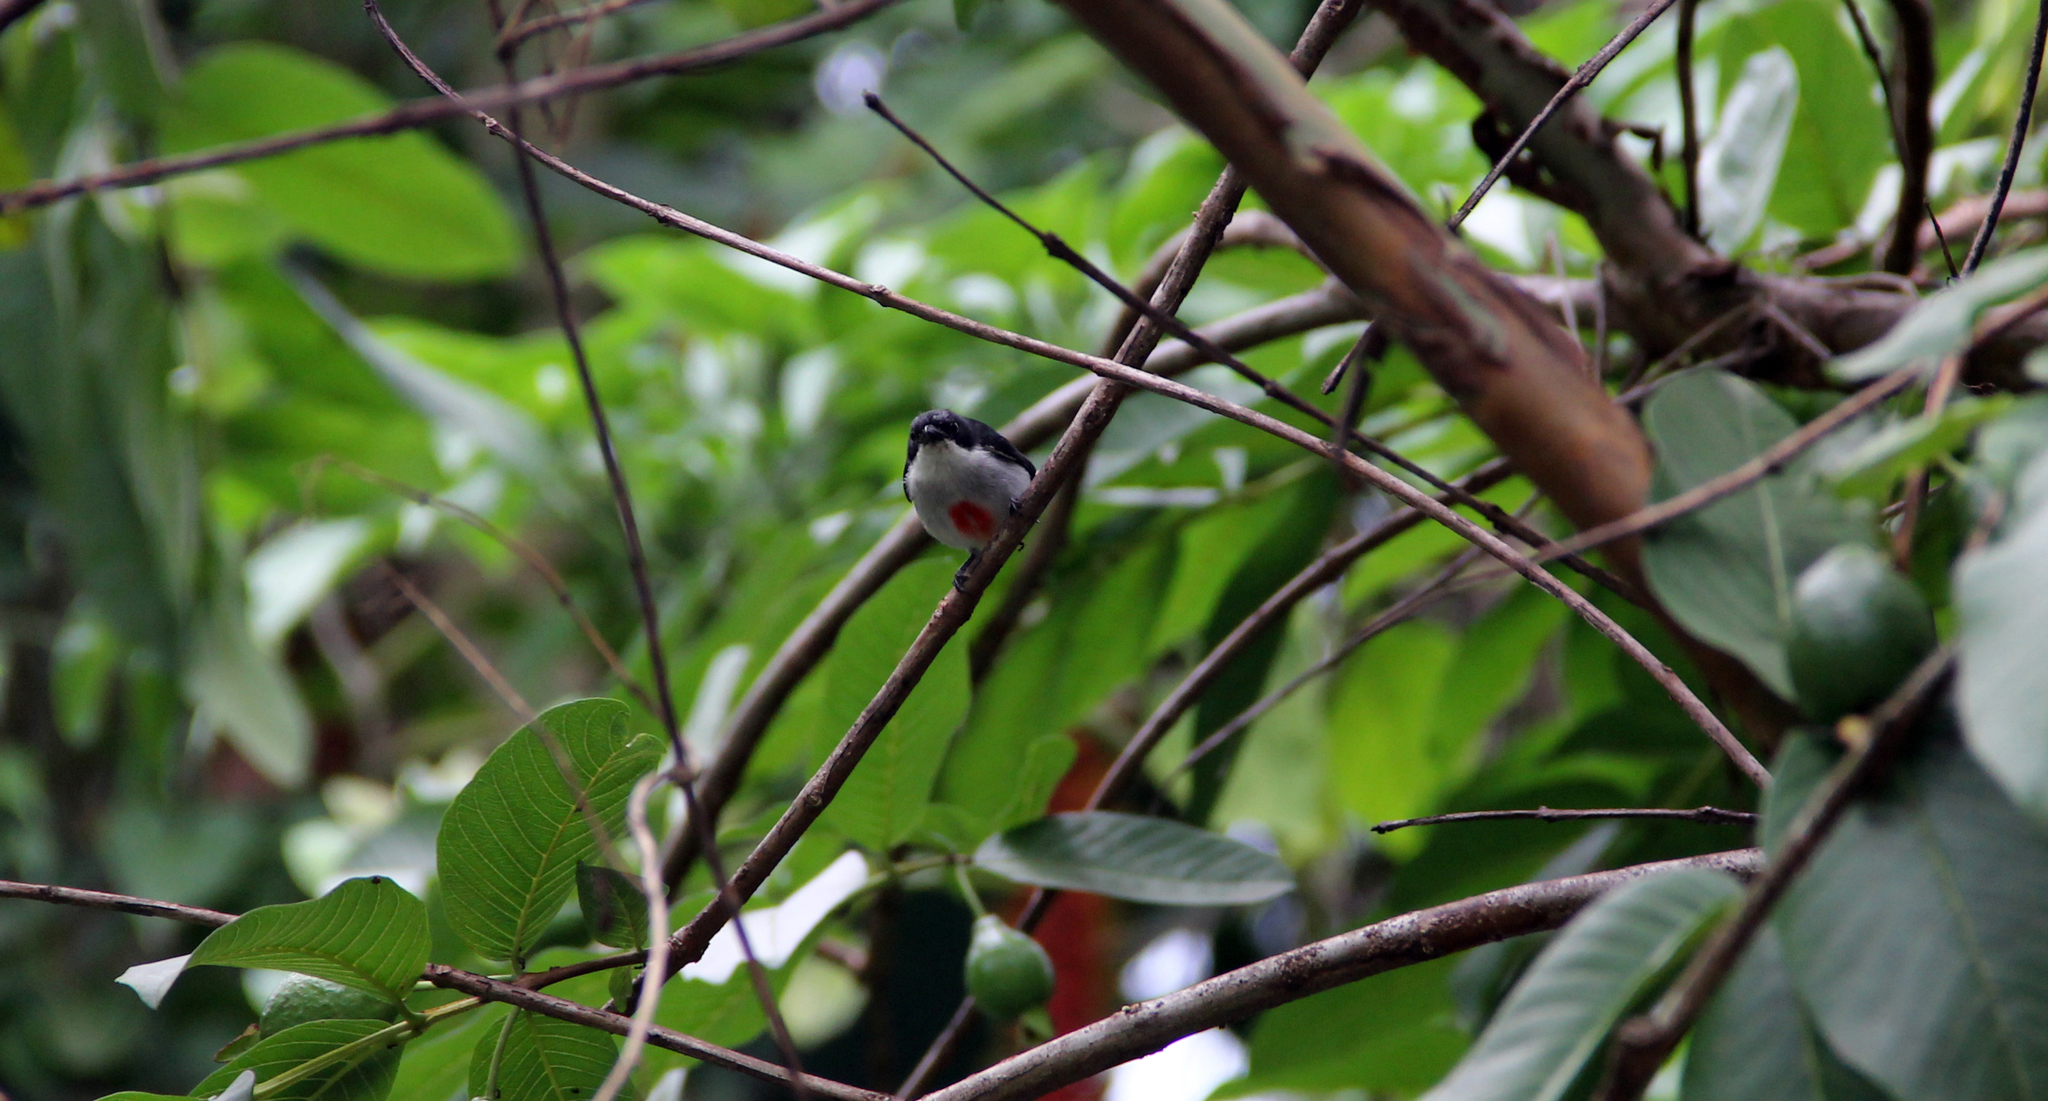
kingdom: Animalia
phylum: Chordata
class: Aves
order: Passeriformes
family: Dicaeidae
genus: Dicaeum
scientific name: Dicaeum australe
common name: Red-keeled flowerpecker
